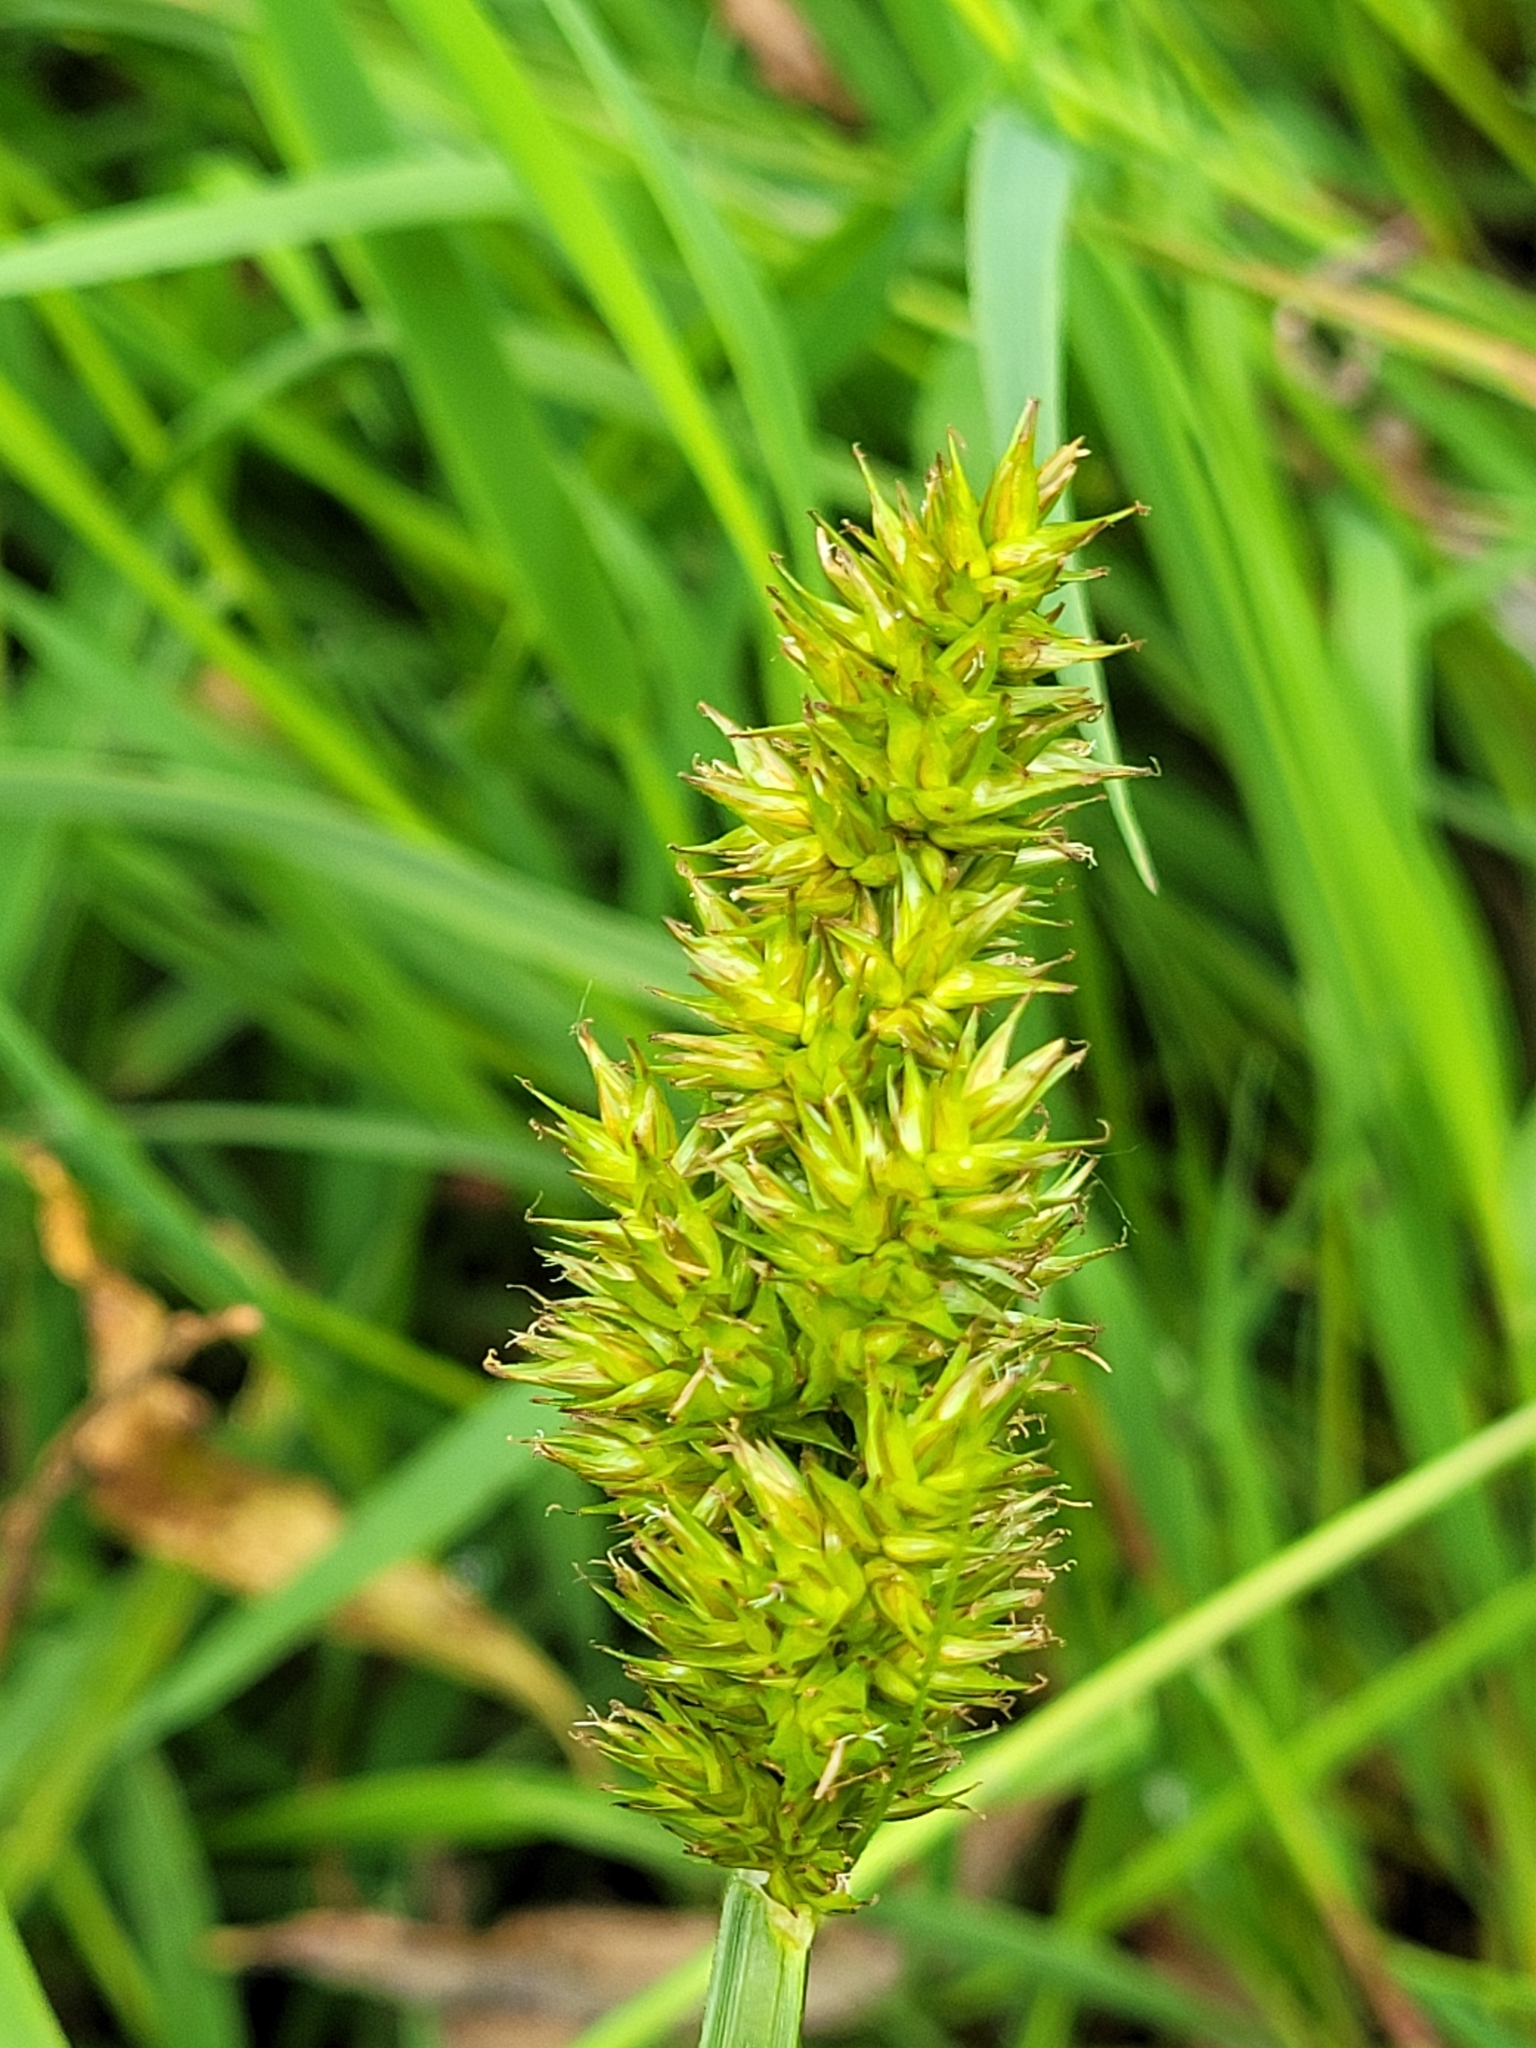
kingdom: Plantae
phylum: Tracheophyta
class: Liliopsida
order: Poales
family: Cyperaceae
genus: Carex
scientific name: Carex stipata
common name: Awl-fruited sedge
